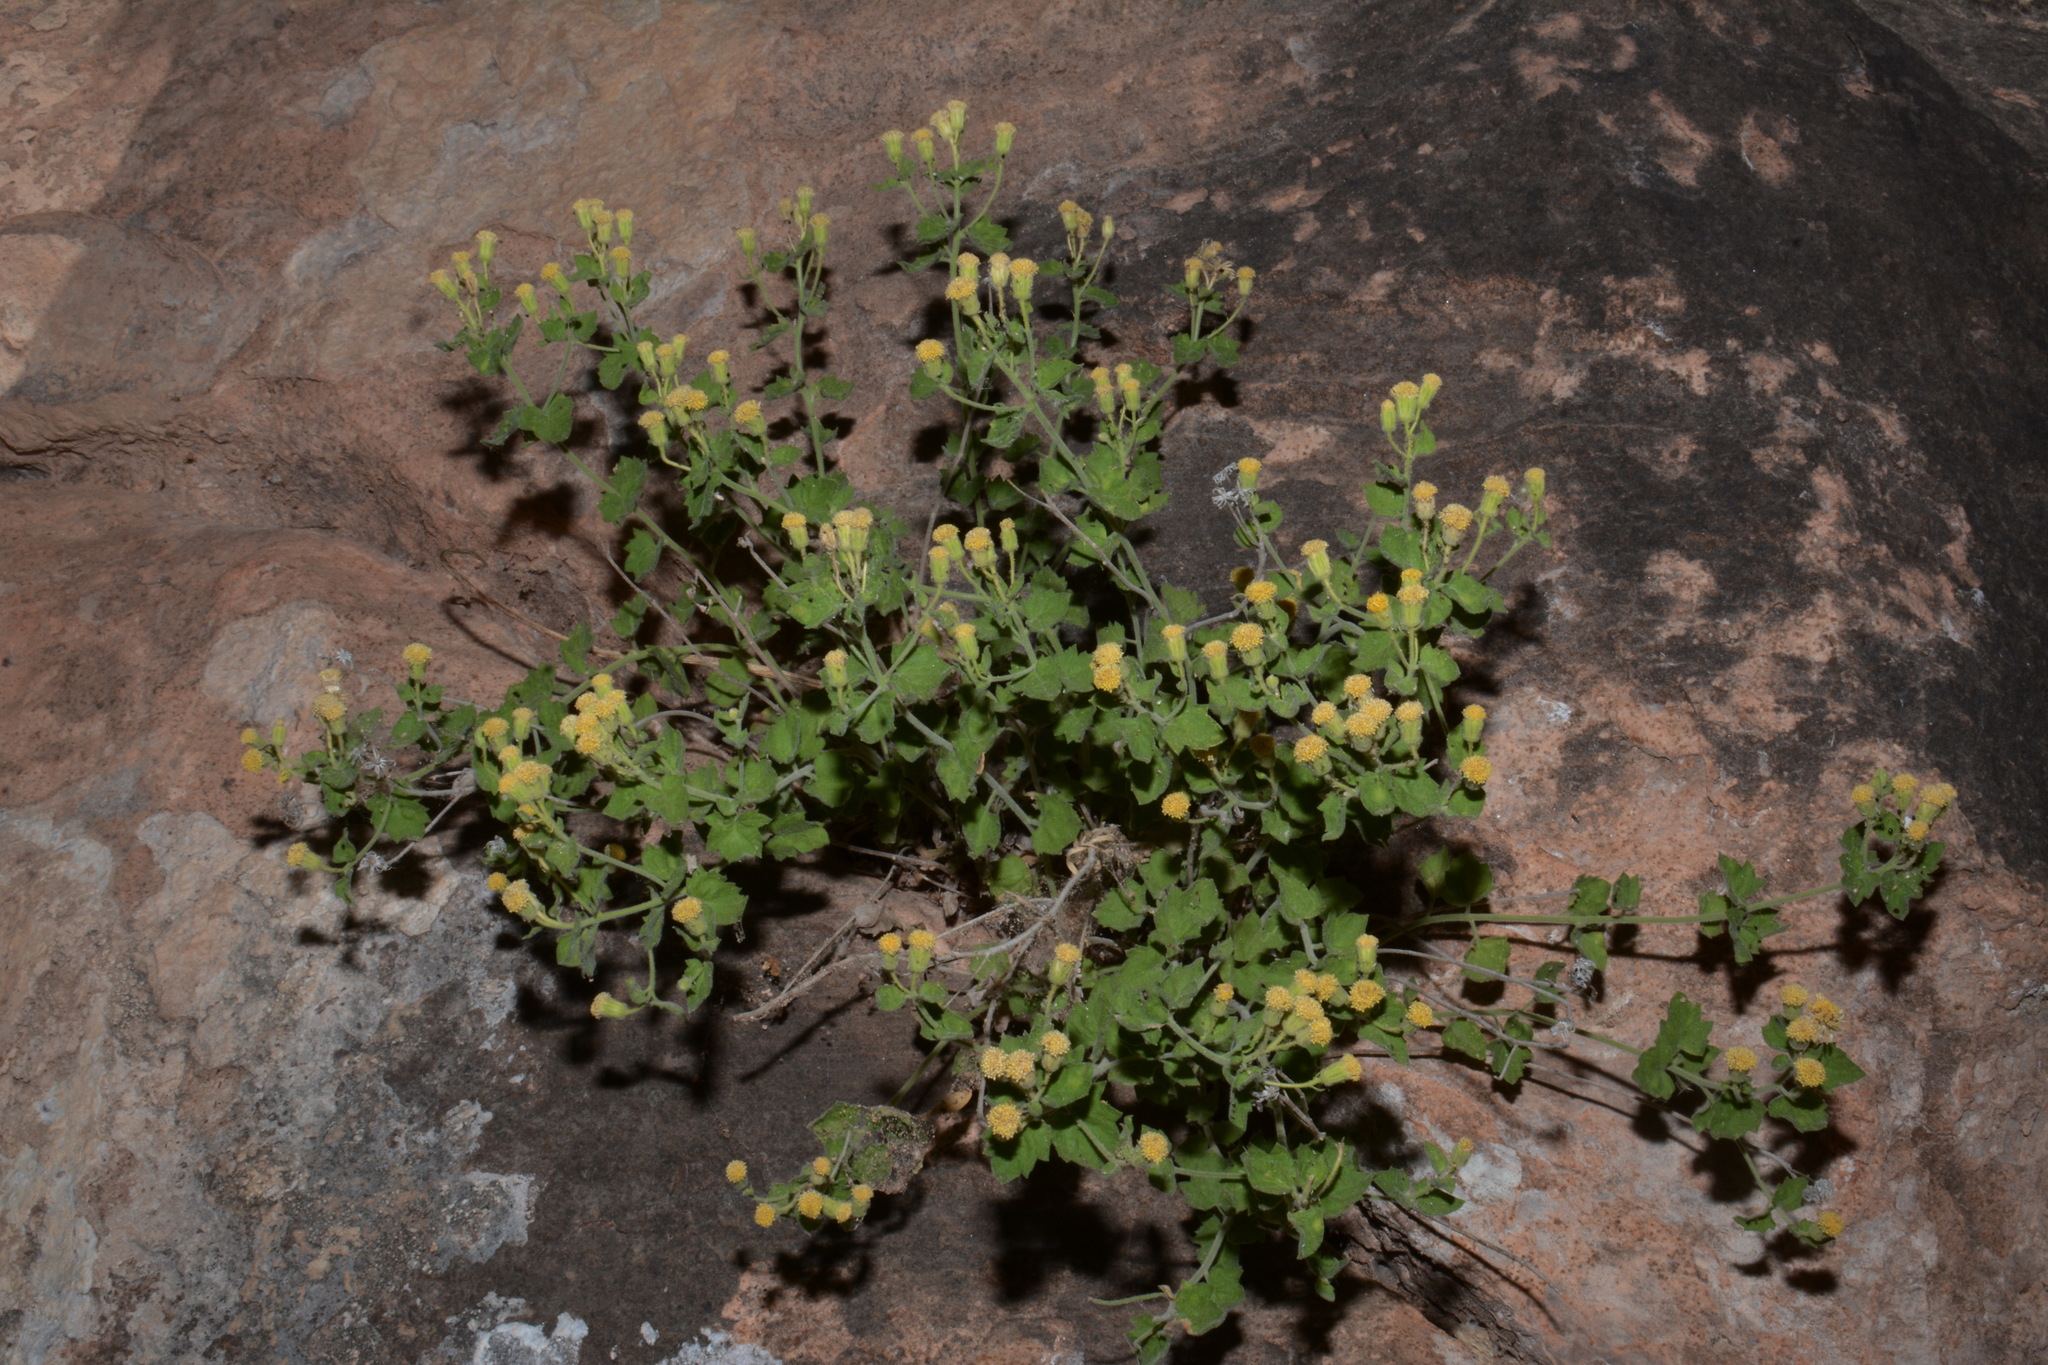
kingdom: Plantae
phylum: Tracheophyta
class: Magnoliopsida
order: Asterales
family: Asteraceae
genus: Laphamia
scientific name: Laphamia sanchezii
